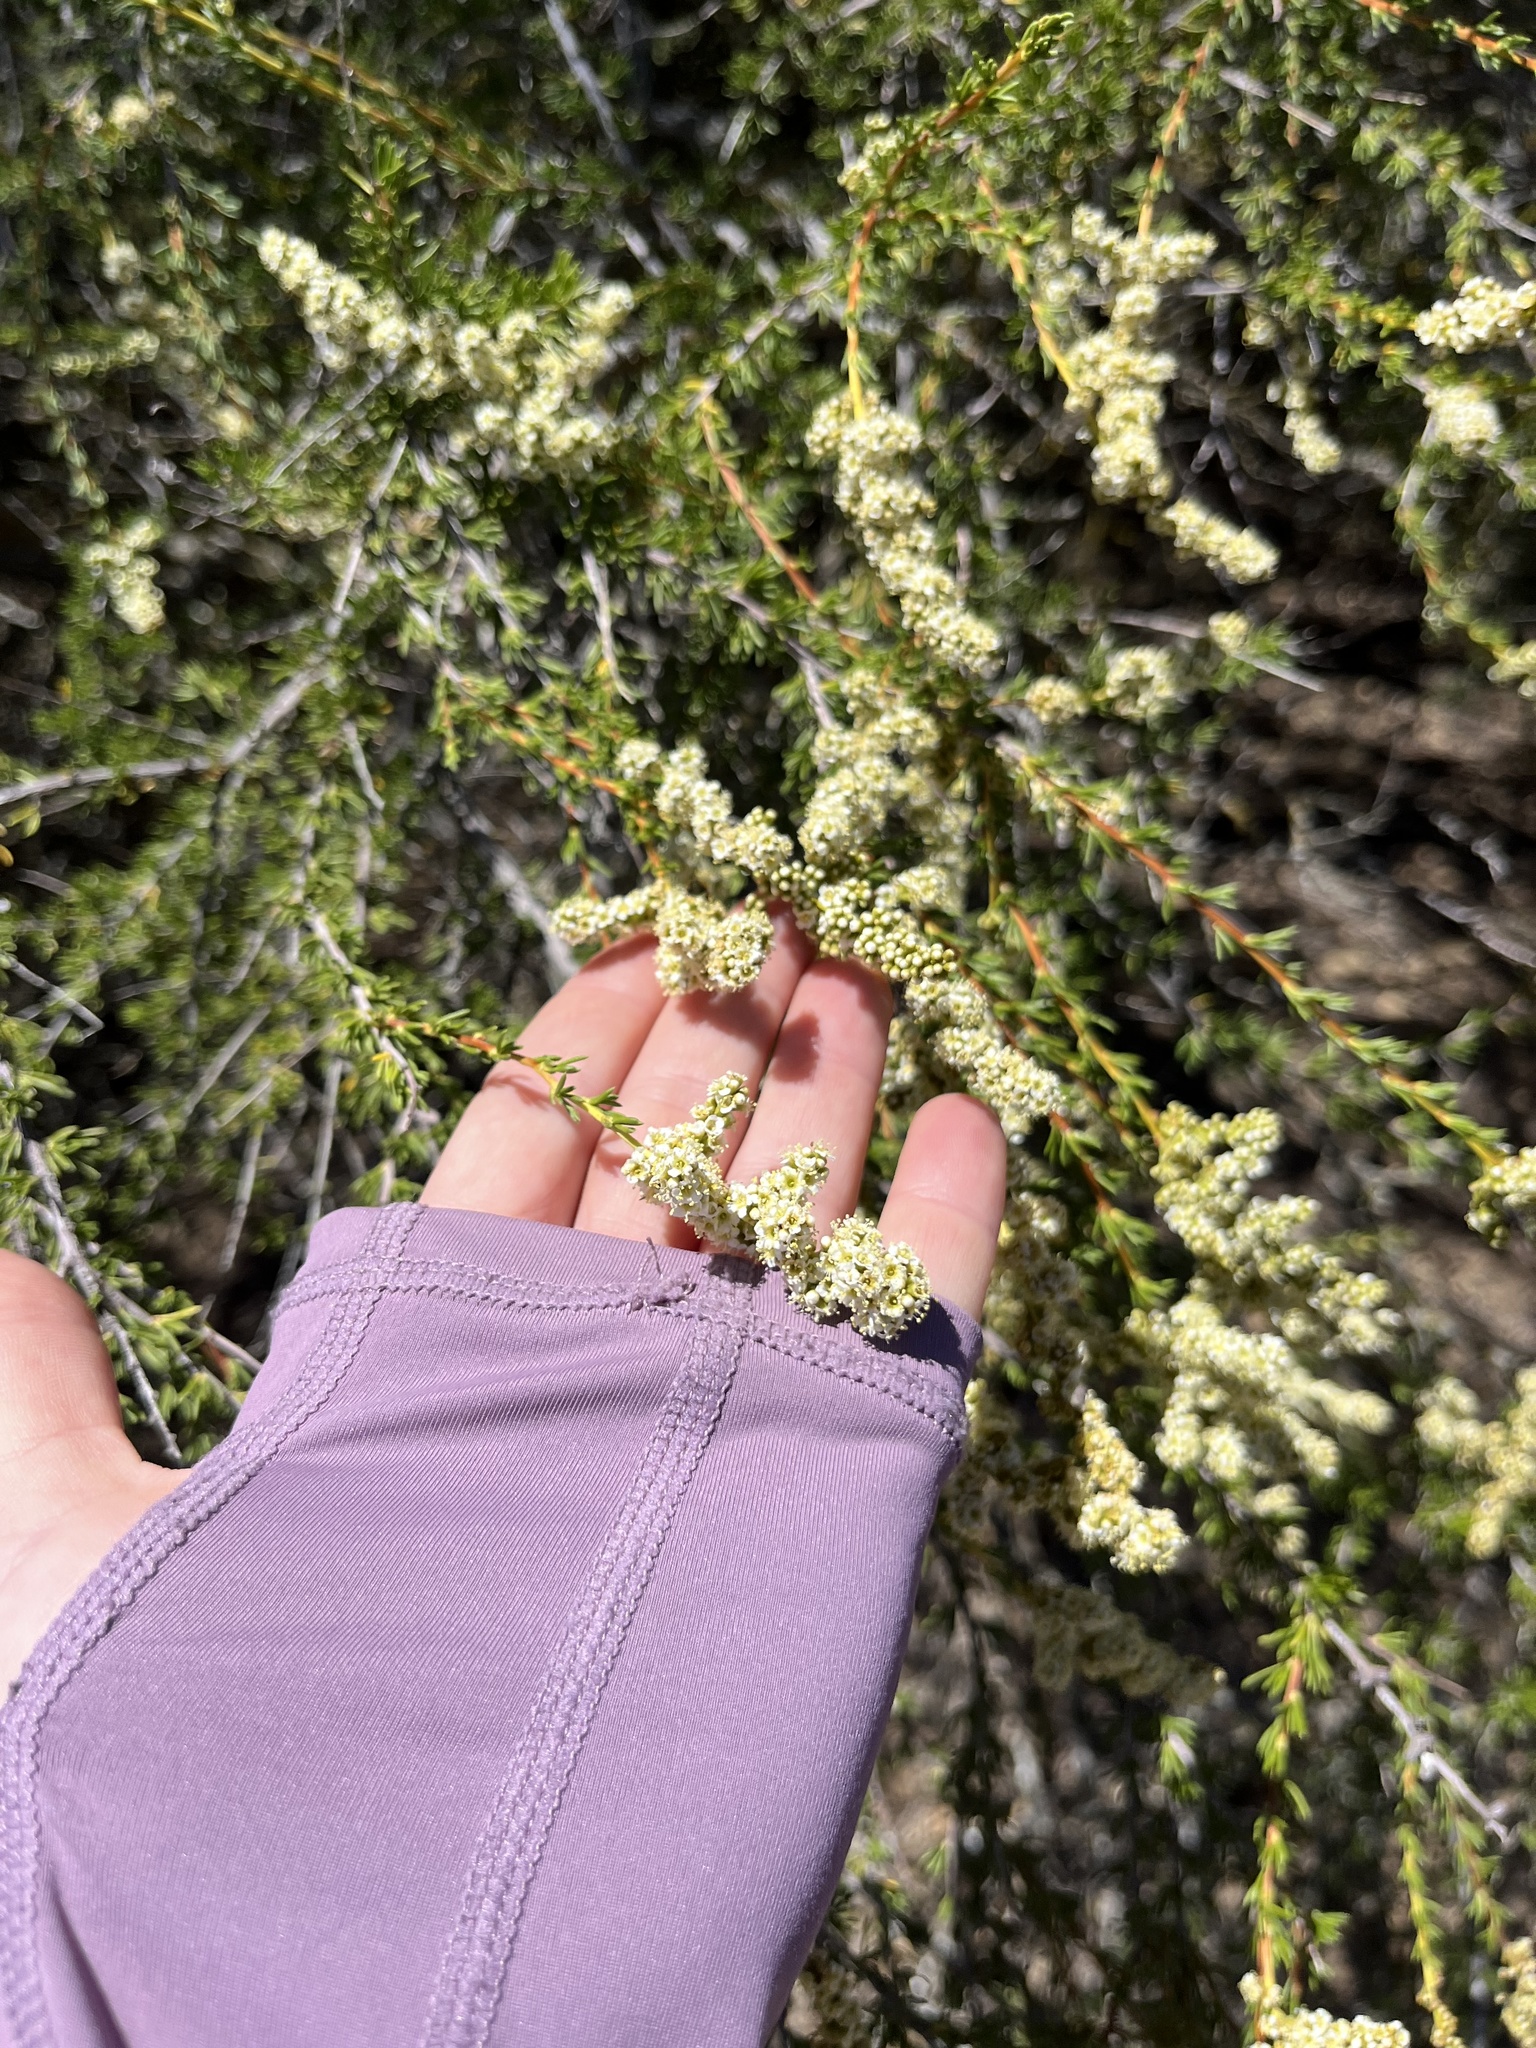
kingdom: Plantae
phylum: Tracheophyta
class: Magnoliopsida
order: Rosales
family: Rosaceae
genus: Adenostoma
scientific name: Adenostoma fasciculatum
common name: Chamise
